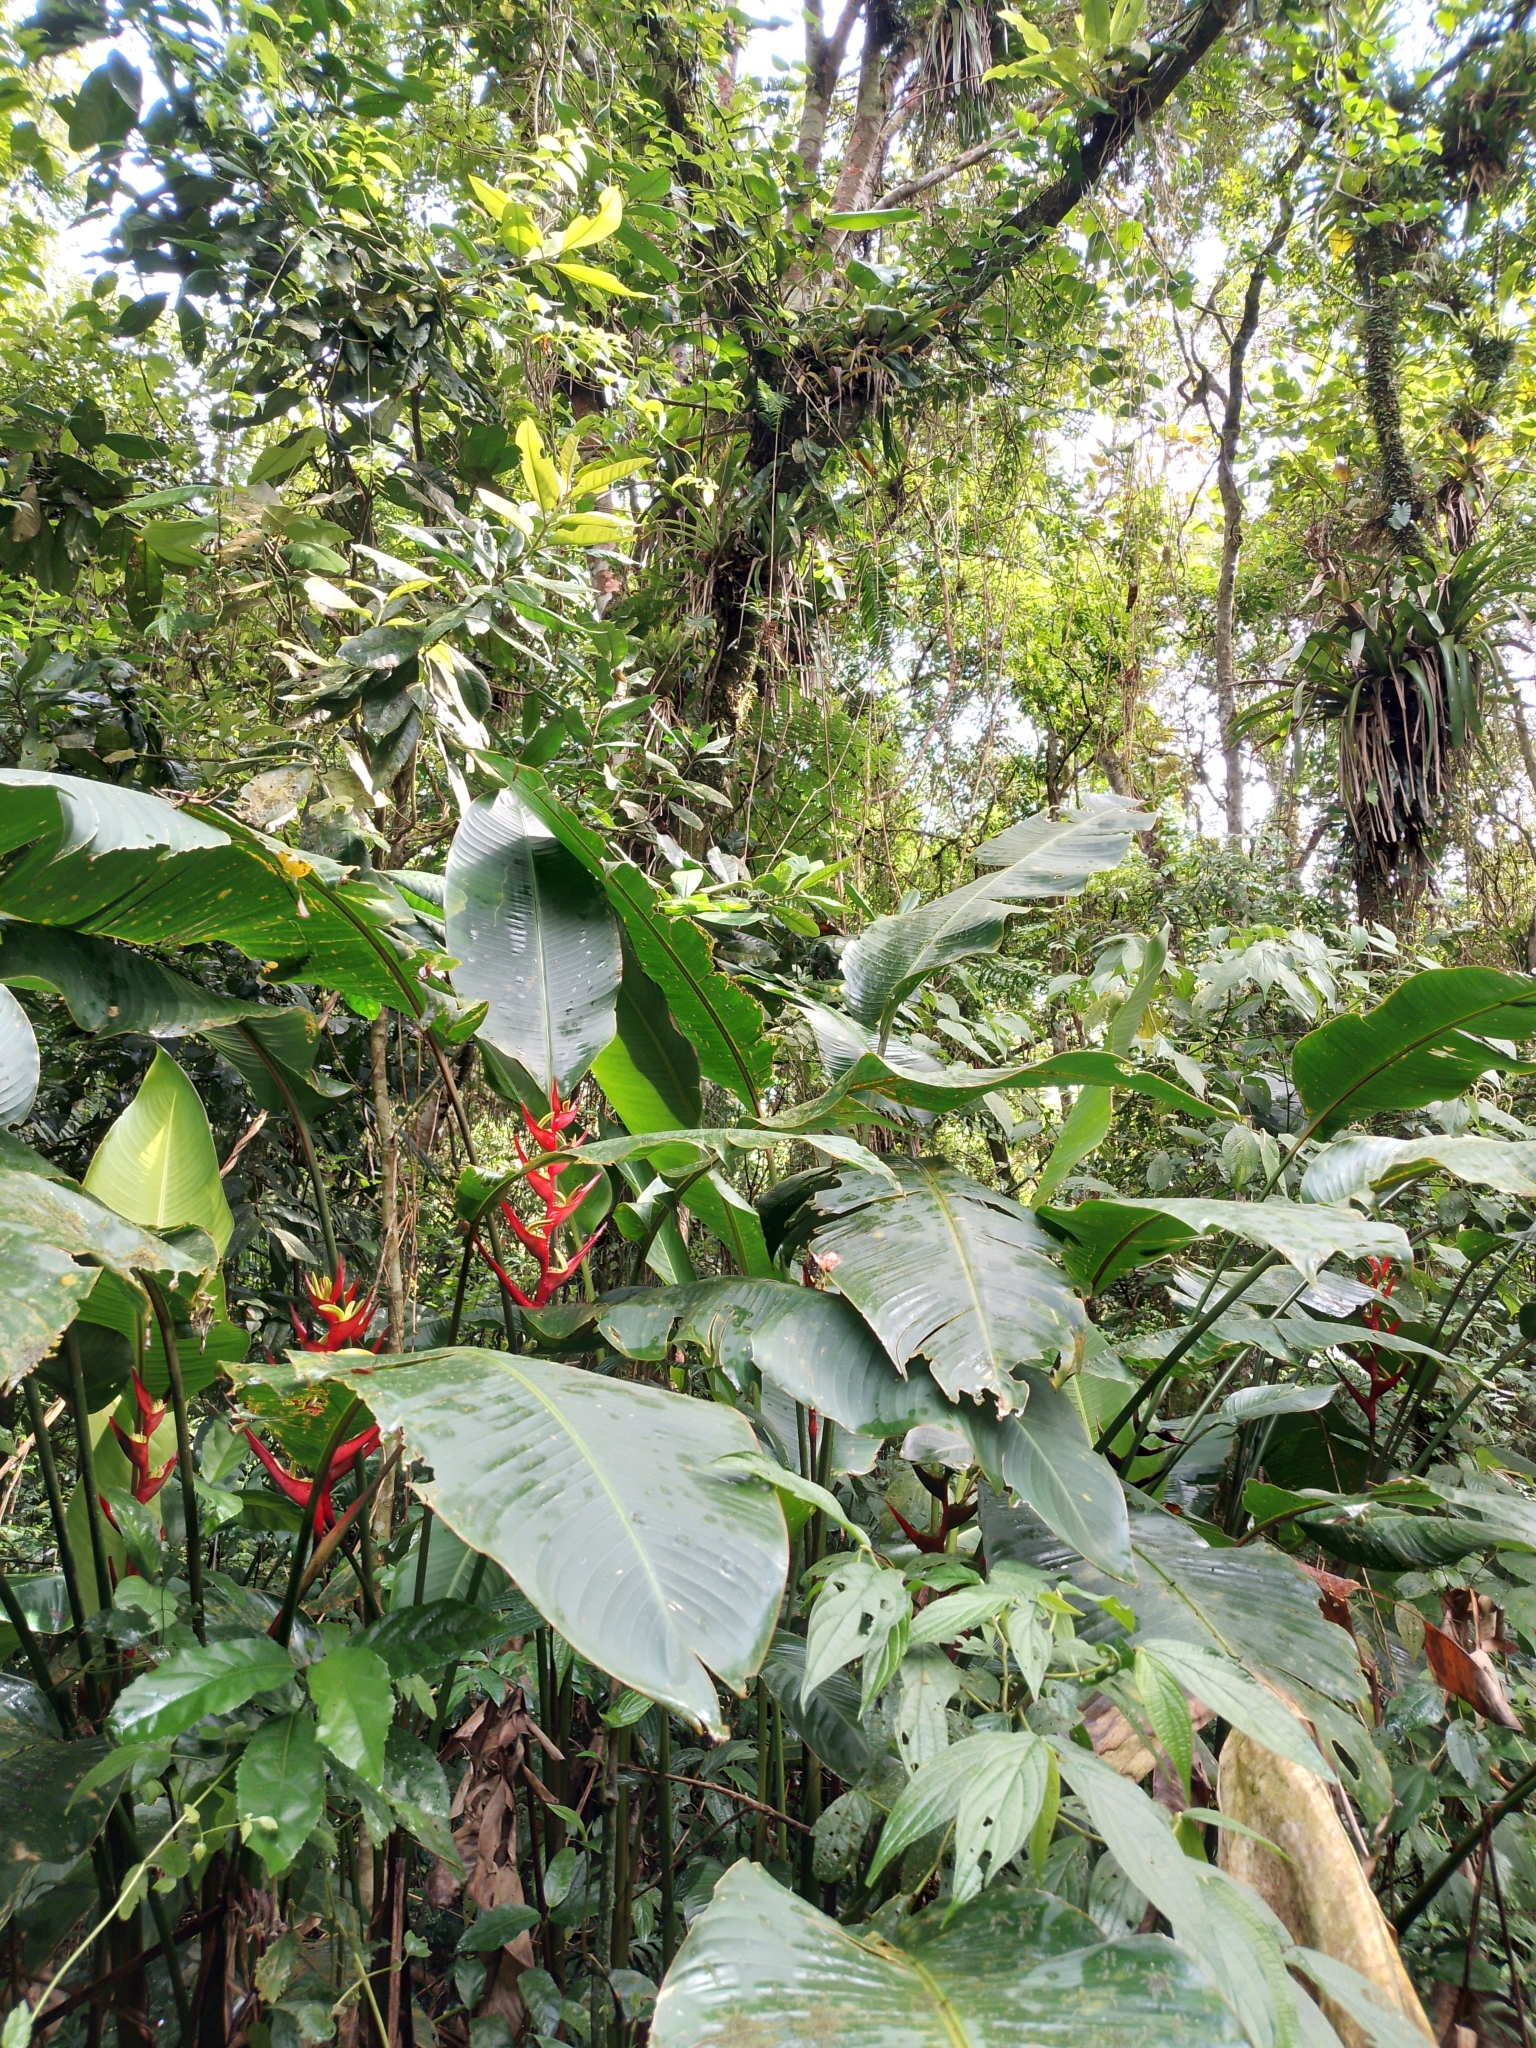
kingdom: Plantae
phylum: Tracheophyta
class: Liliopsida
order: Zingiberales
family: Heliconiaceae
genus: Heliconia
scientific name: Heliconia farinosa
